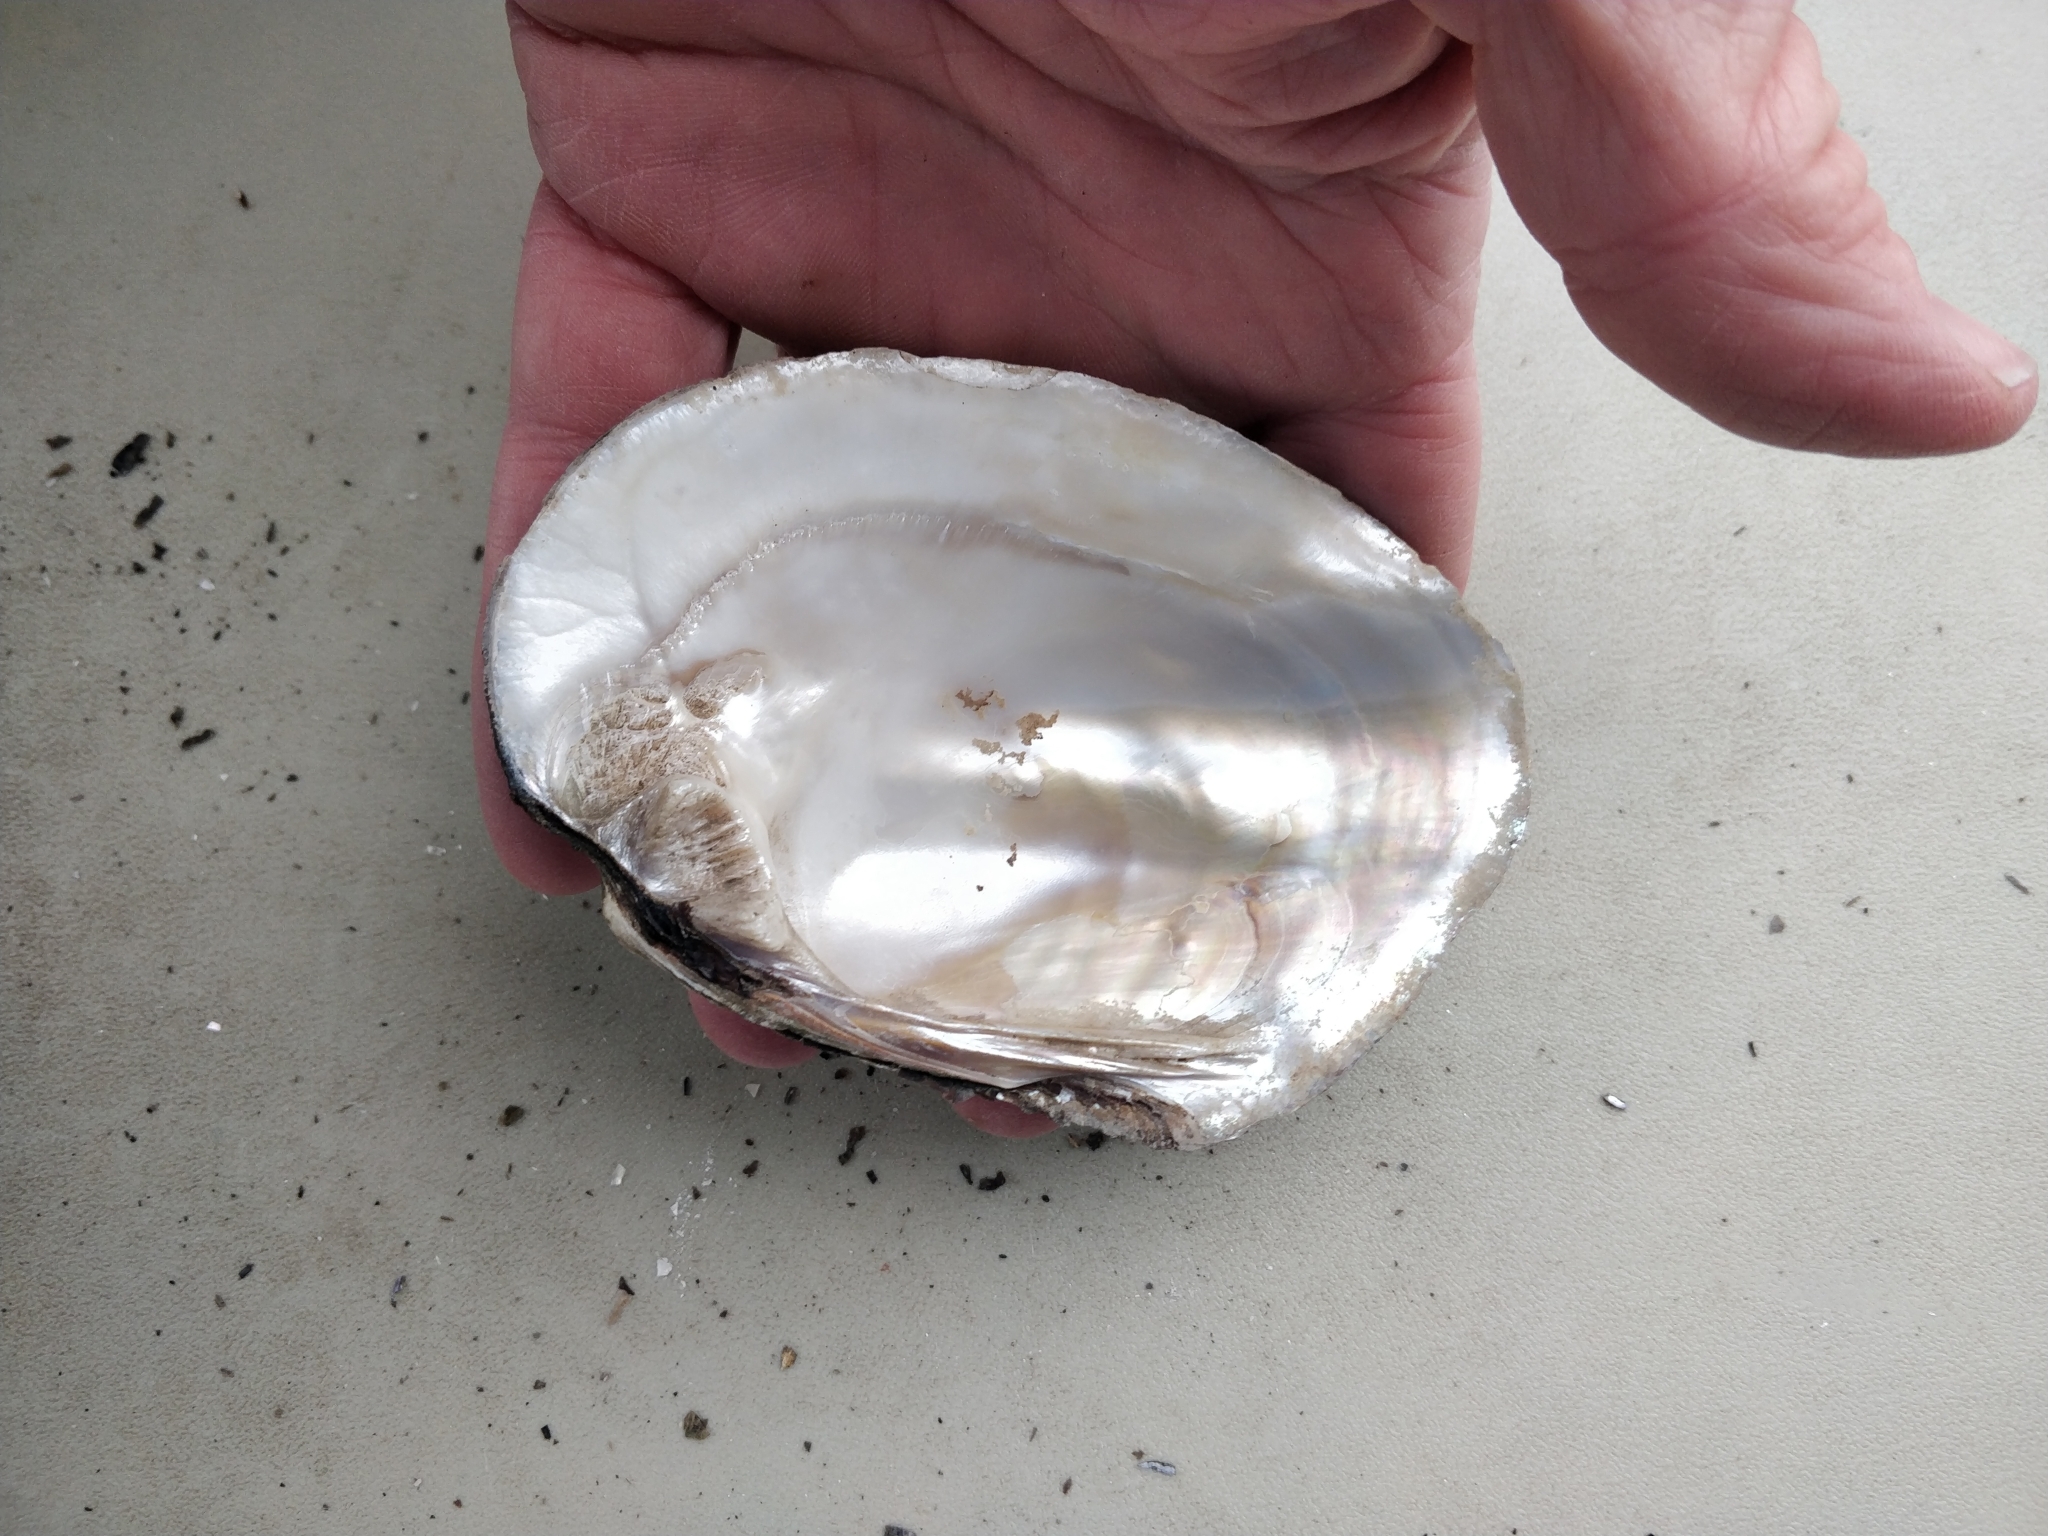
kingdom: Animalia
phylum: Mollusca
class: Bivalvia
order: Unionida
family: Unionidae
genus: Amblema
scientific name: Amblema plicata
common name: Threeridge
